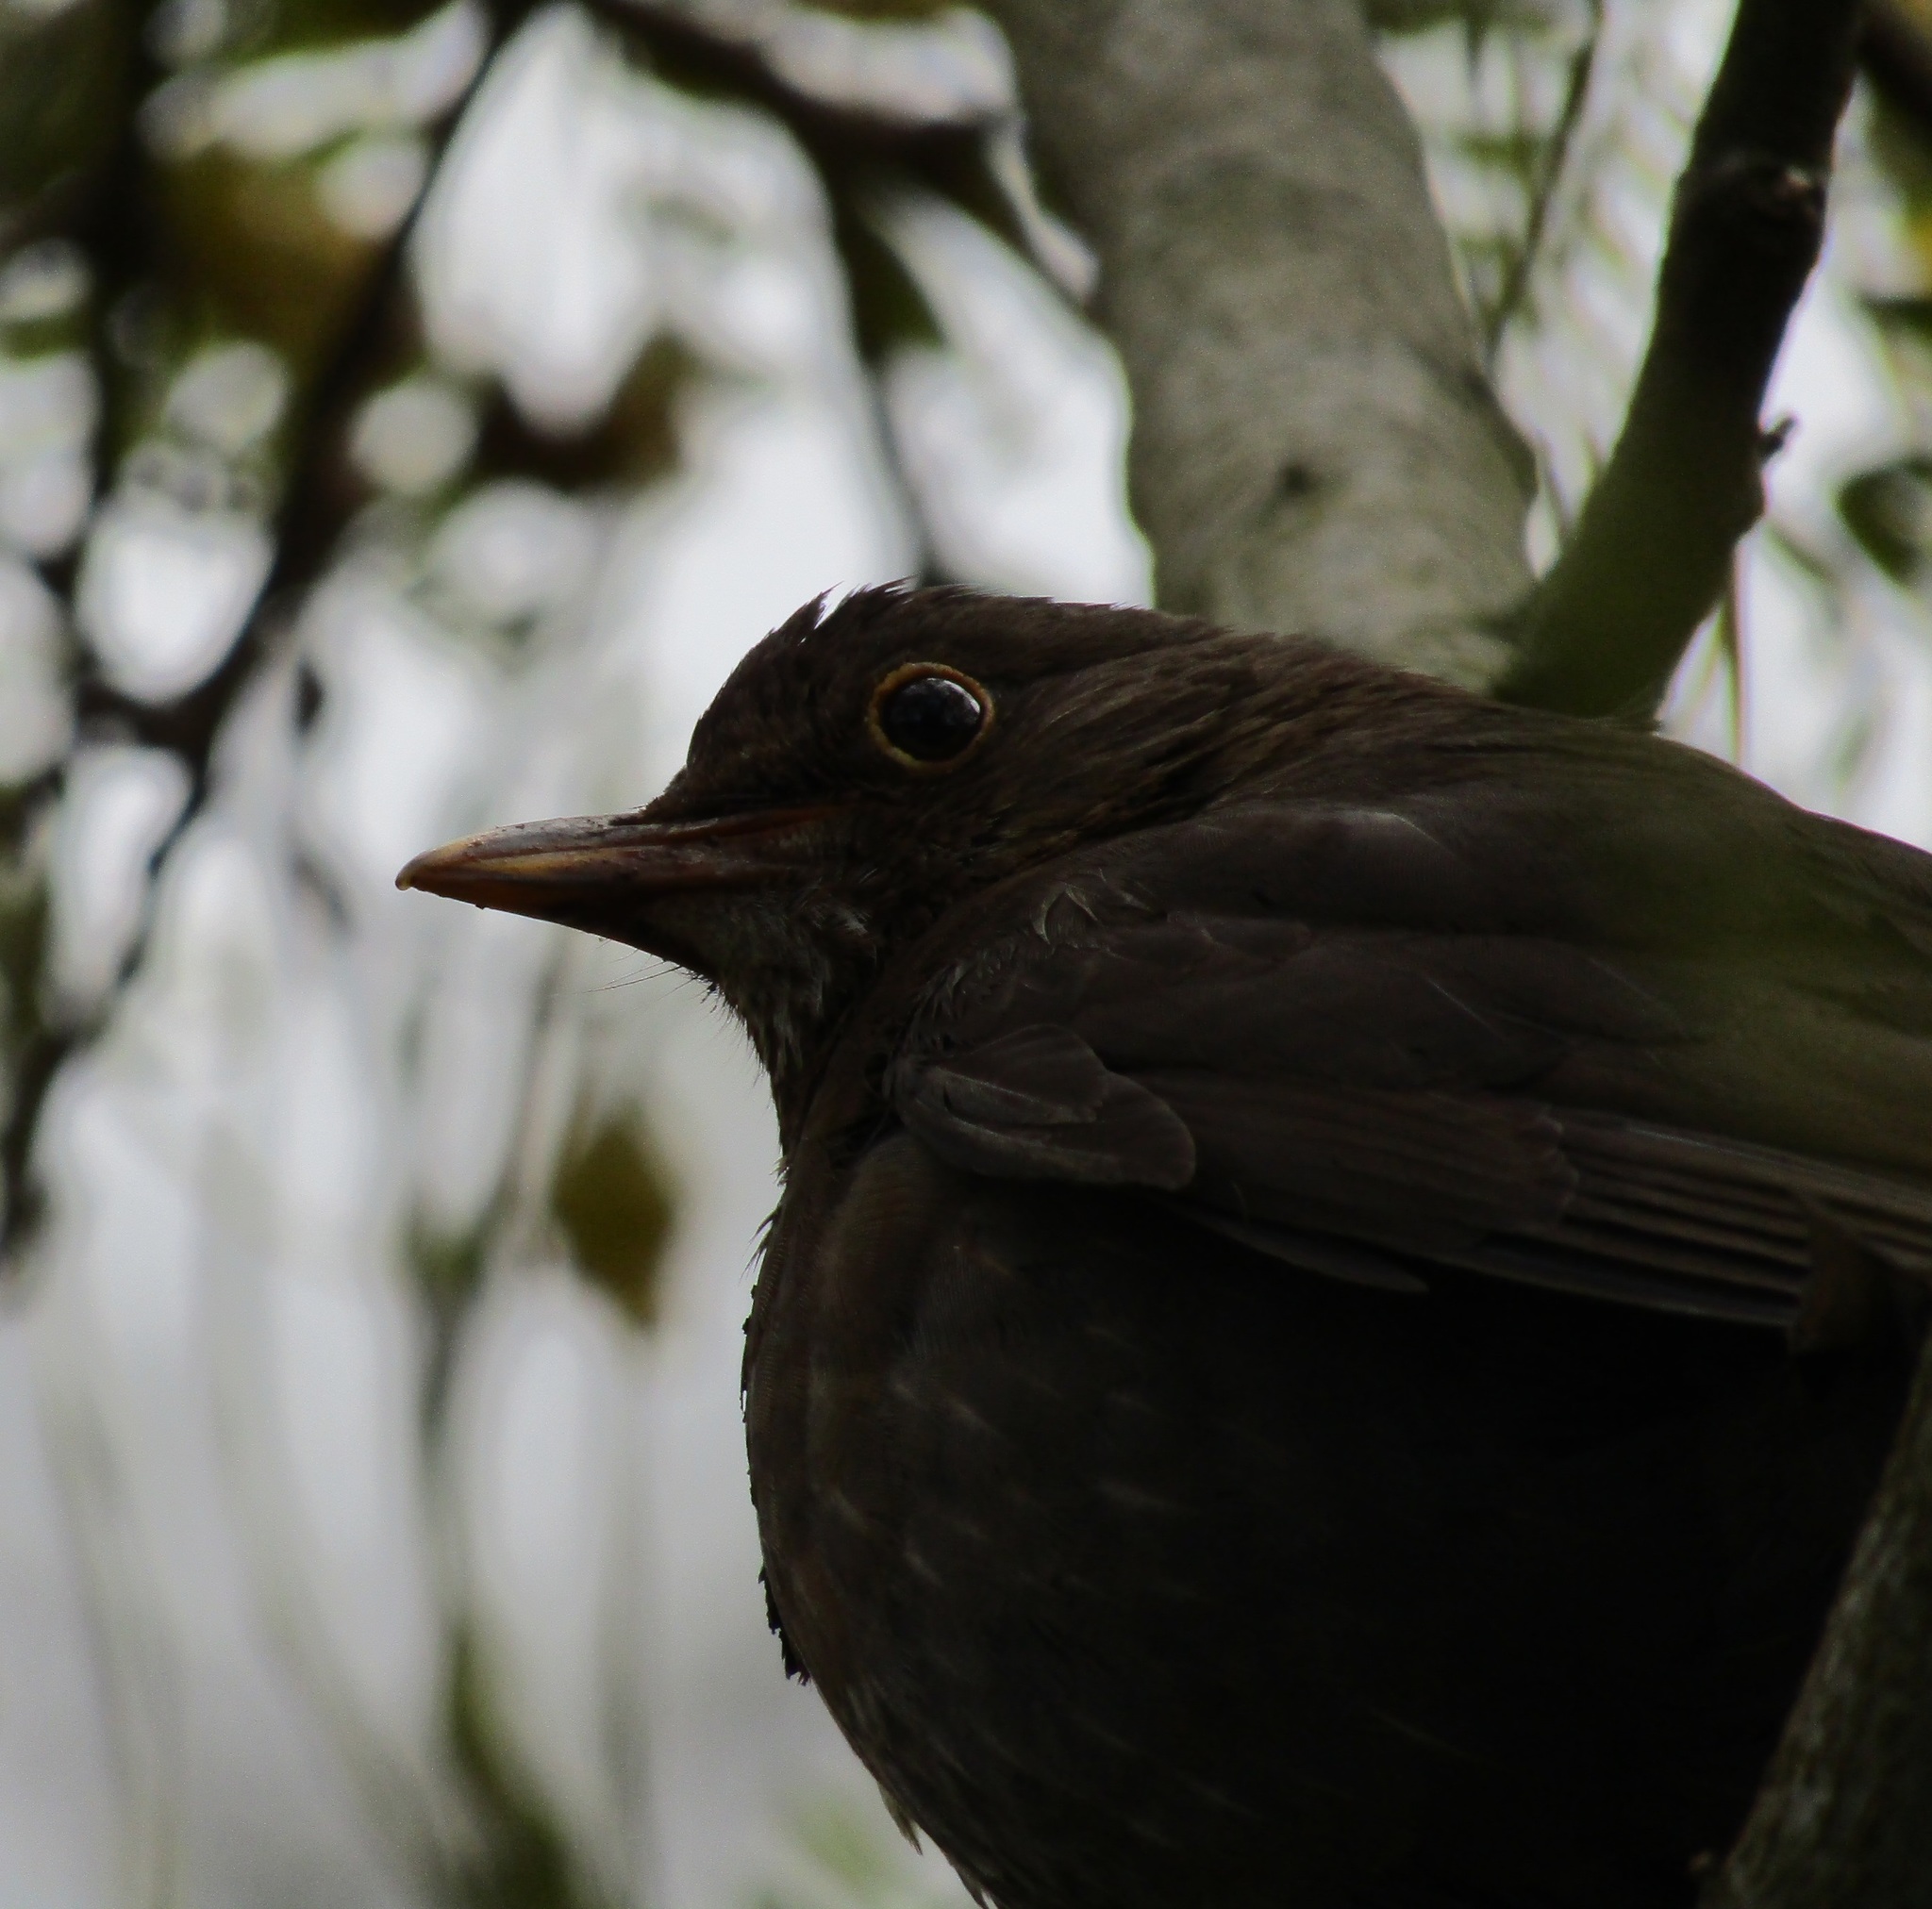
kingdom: Animalia
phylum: Chordata
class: Aves
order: Passeriformes
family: Turdidae
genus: Turdus
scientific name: Turdus merula
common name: Common blackbird
